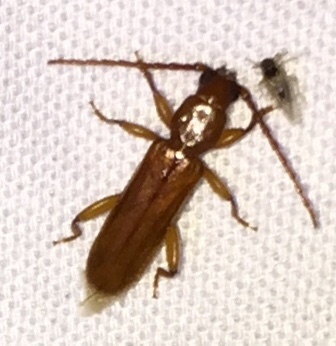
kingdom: Animalia
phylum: Arthropoda
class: Insecta
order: Coleoptera
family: Cerambycidae
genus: Smodicum
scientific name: Smodicum cucujiforme
